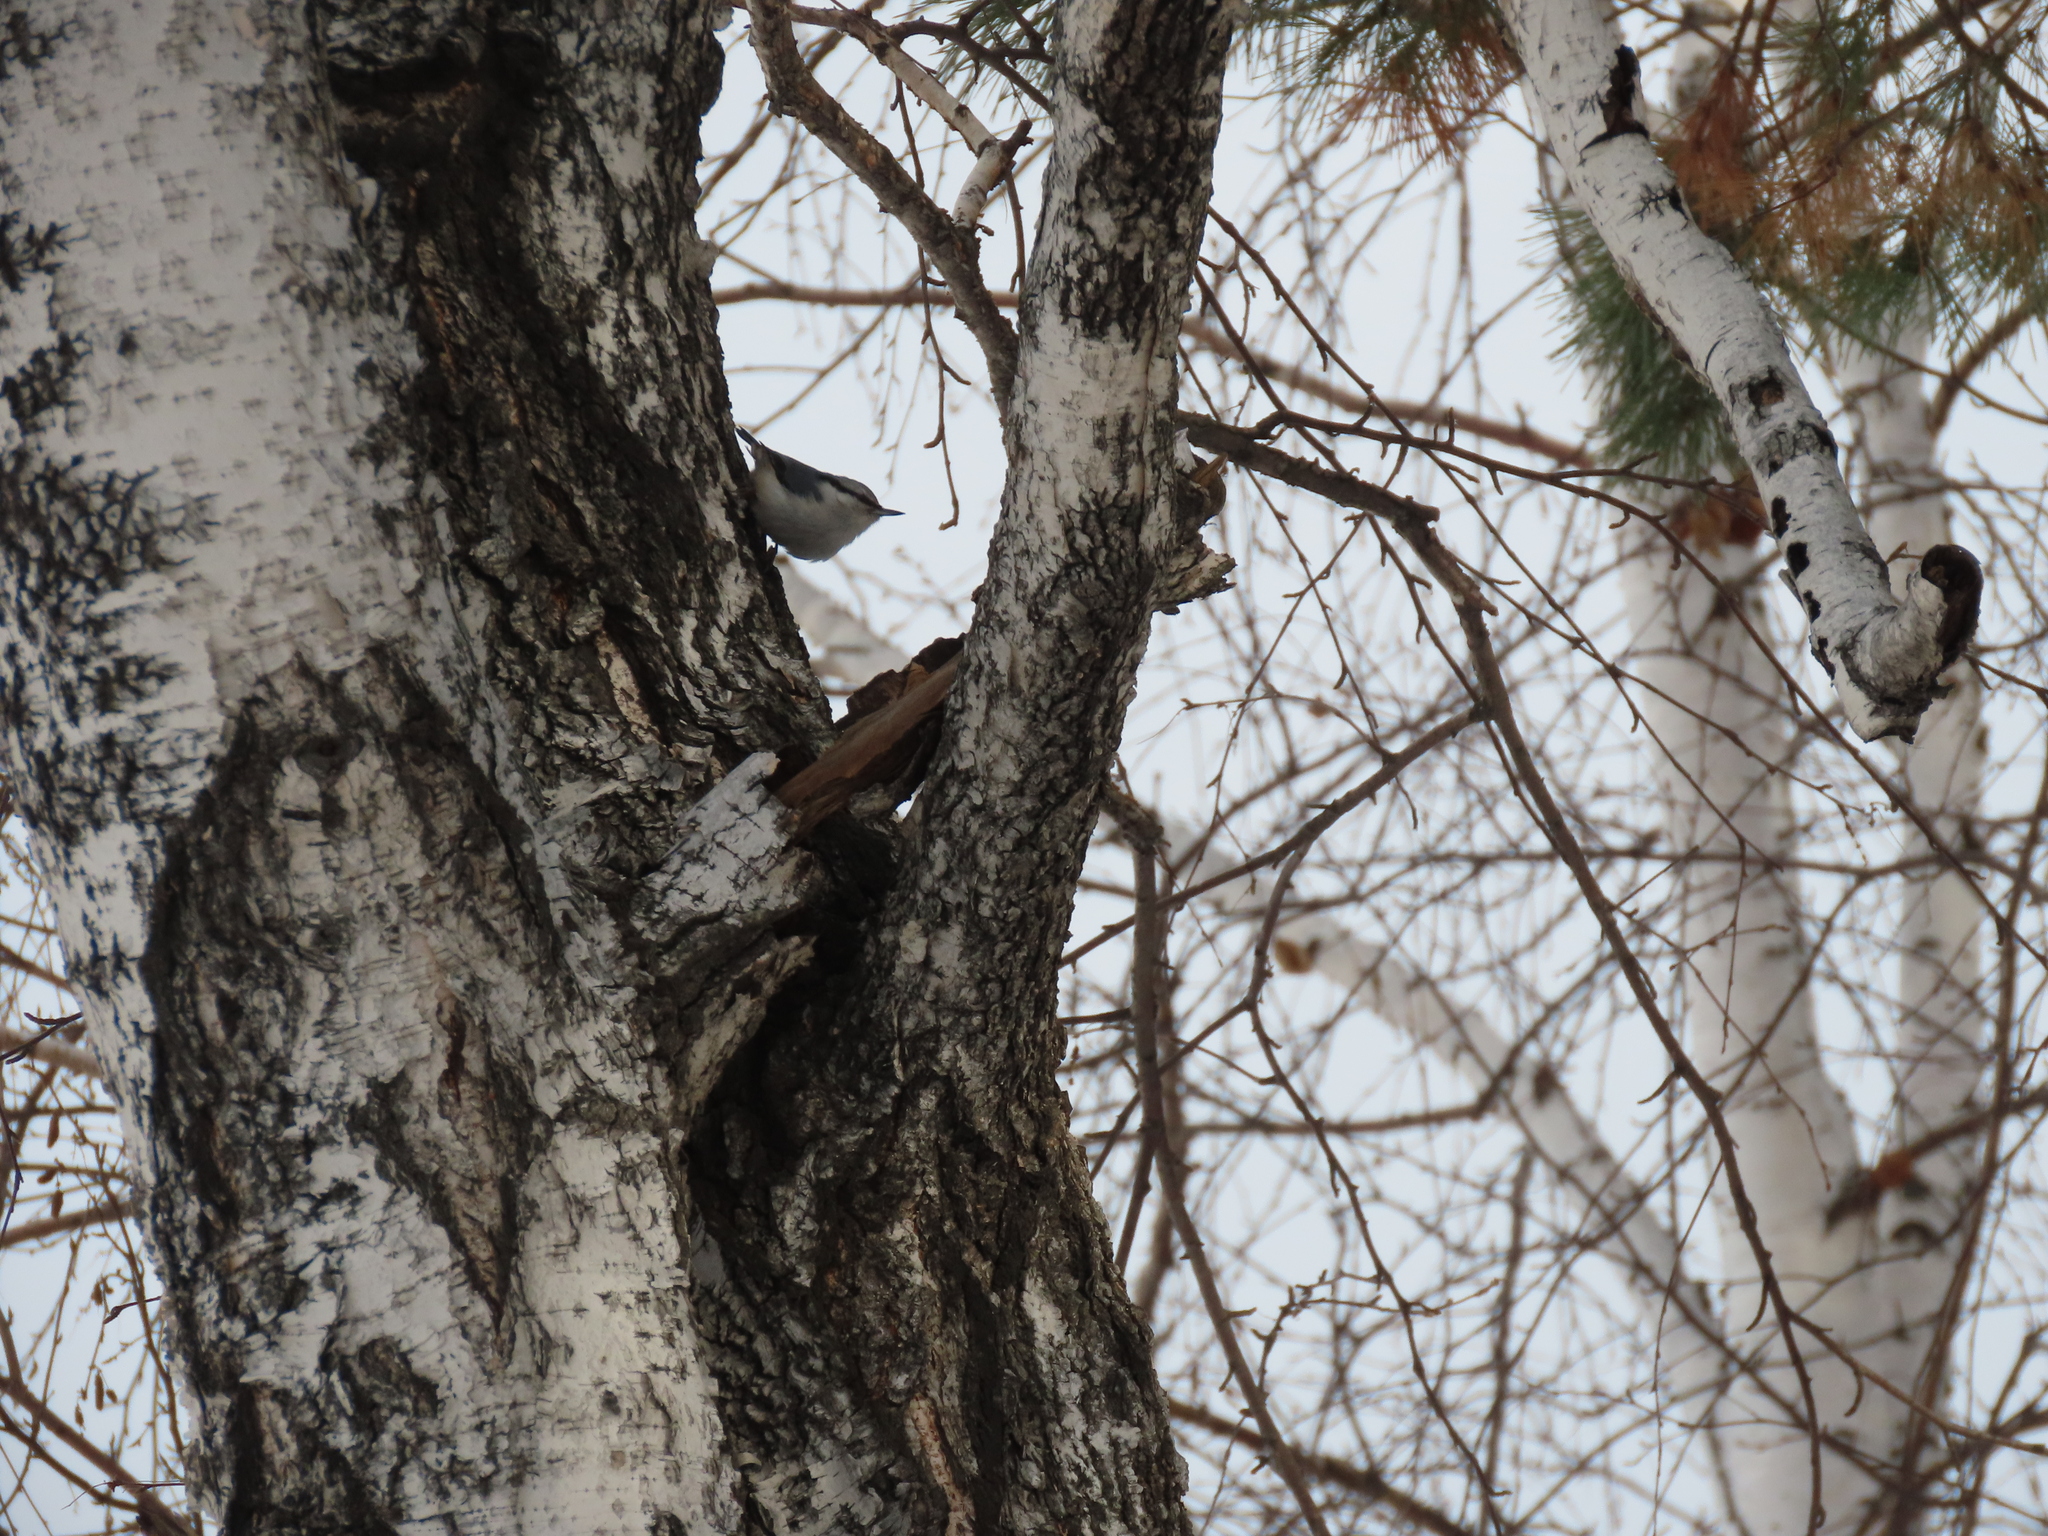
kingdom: Animalia
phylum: Chordata
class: Aves
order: Passeriformes
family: Sittidae
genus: Sitta
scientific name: Sitta europaea
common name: Eurasian nuthatch
